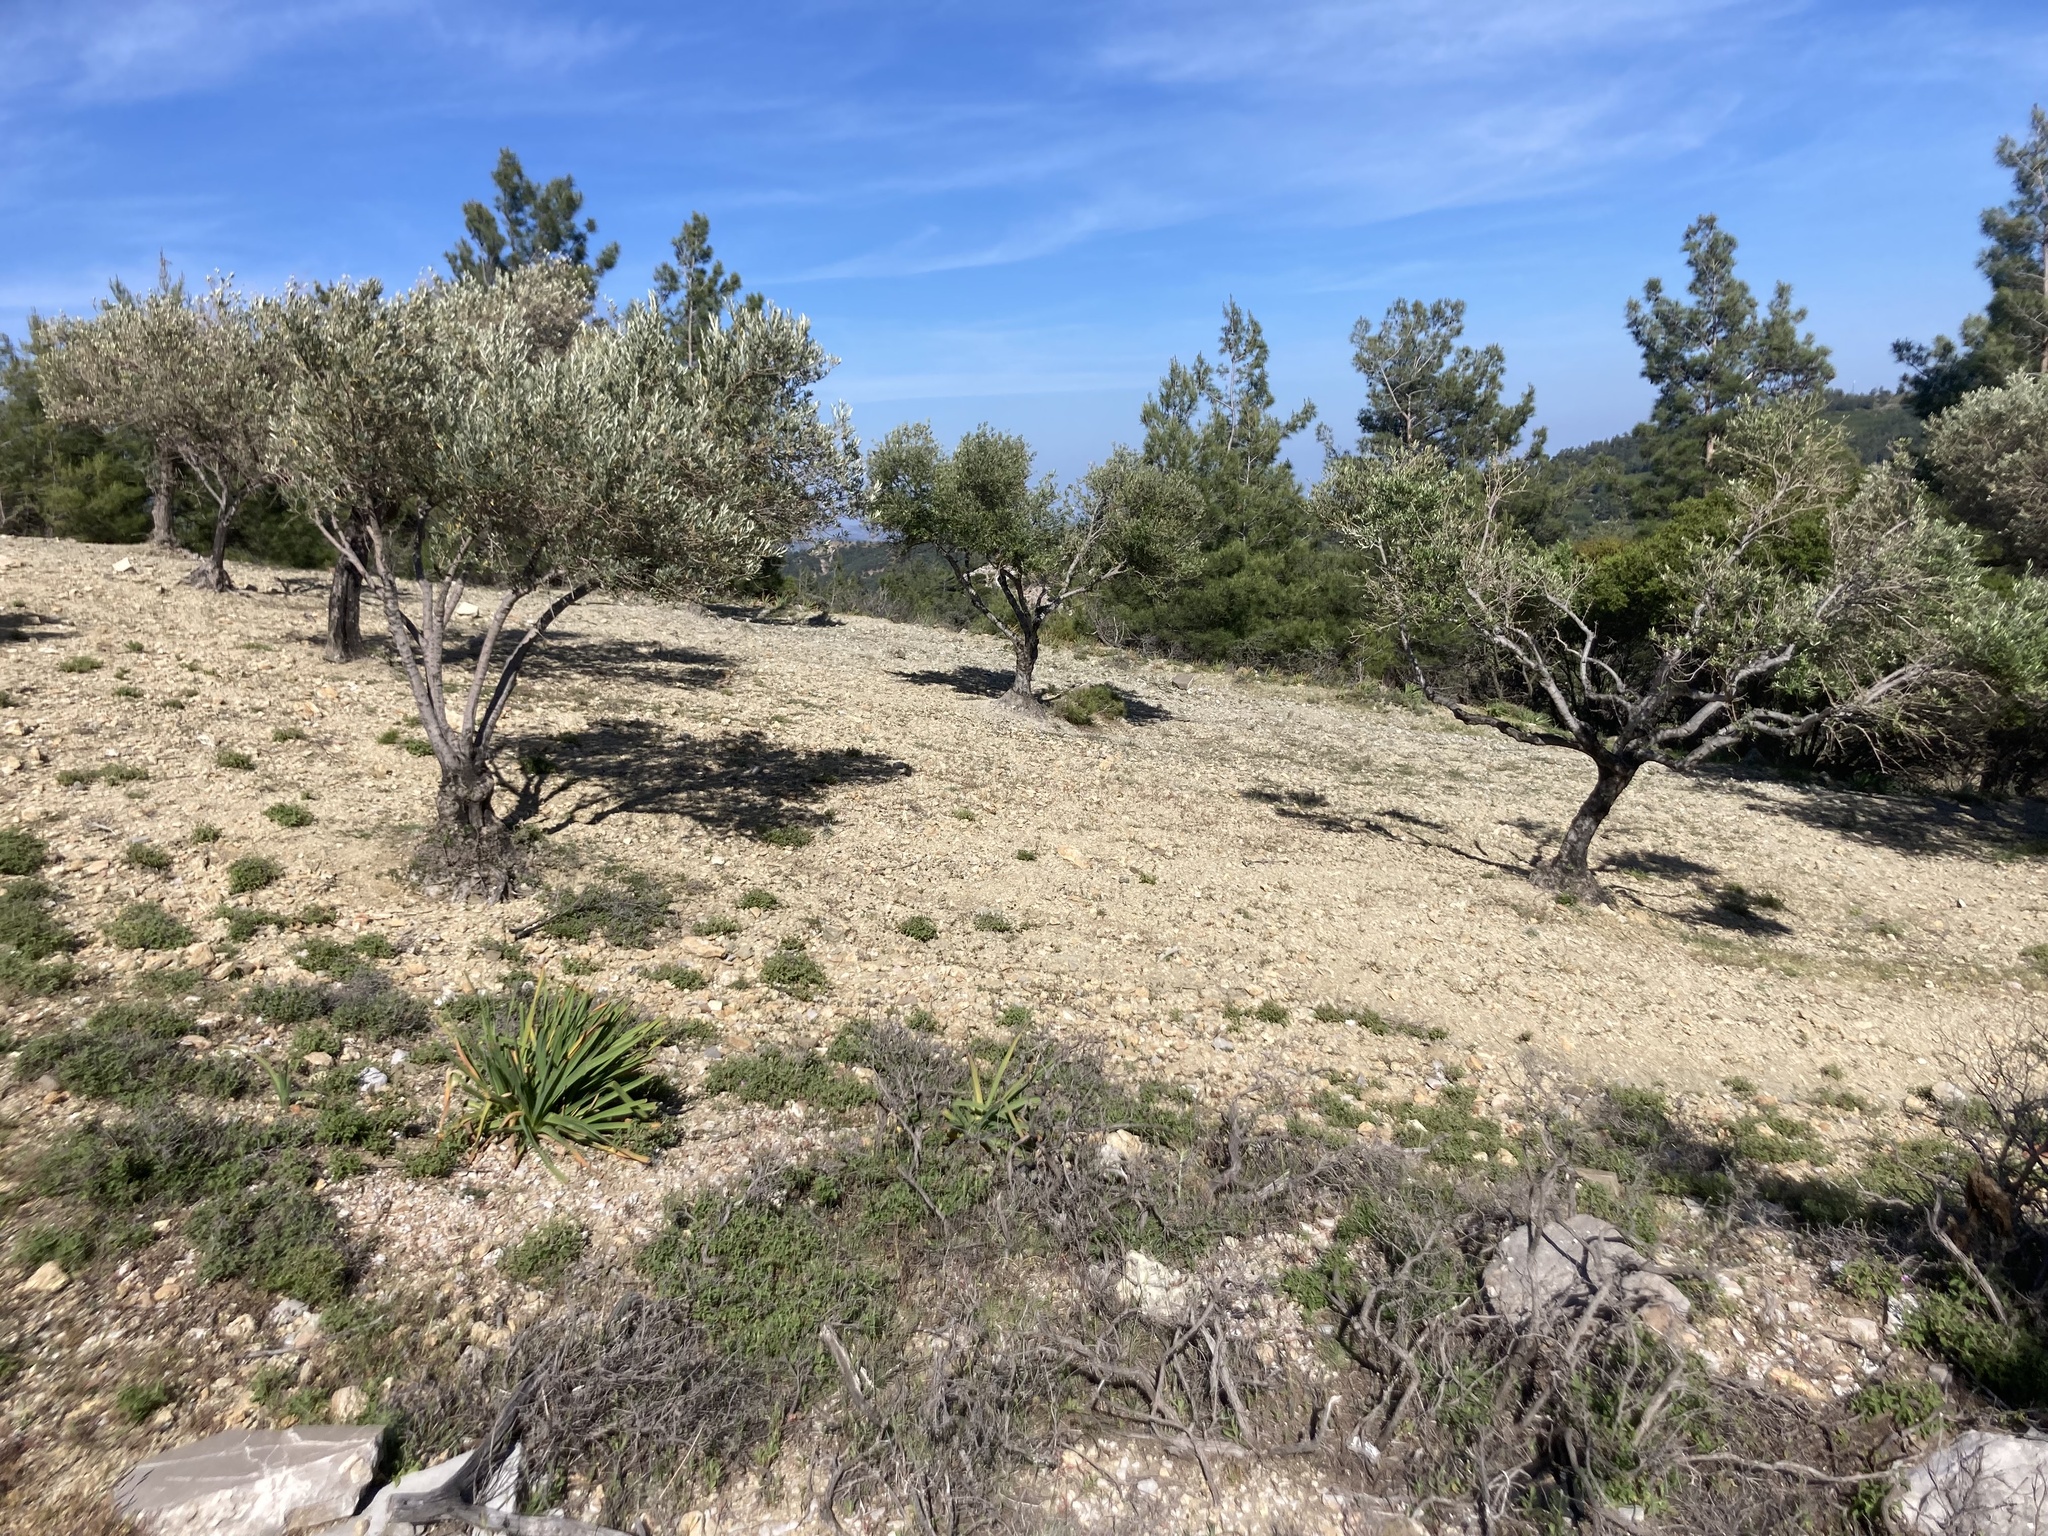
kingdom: Plantae
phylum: Tracheophyta
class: Magnoliopsida
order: Lamiales
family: Oleaceae
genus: Olea
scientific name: Olea europaea
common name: Olive
